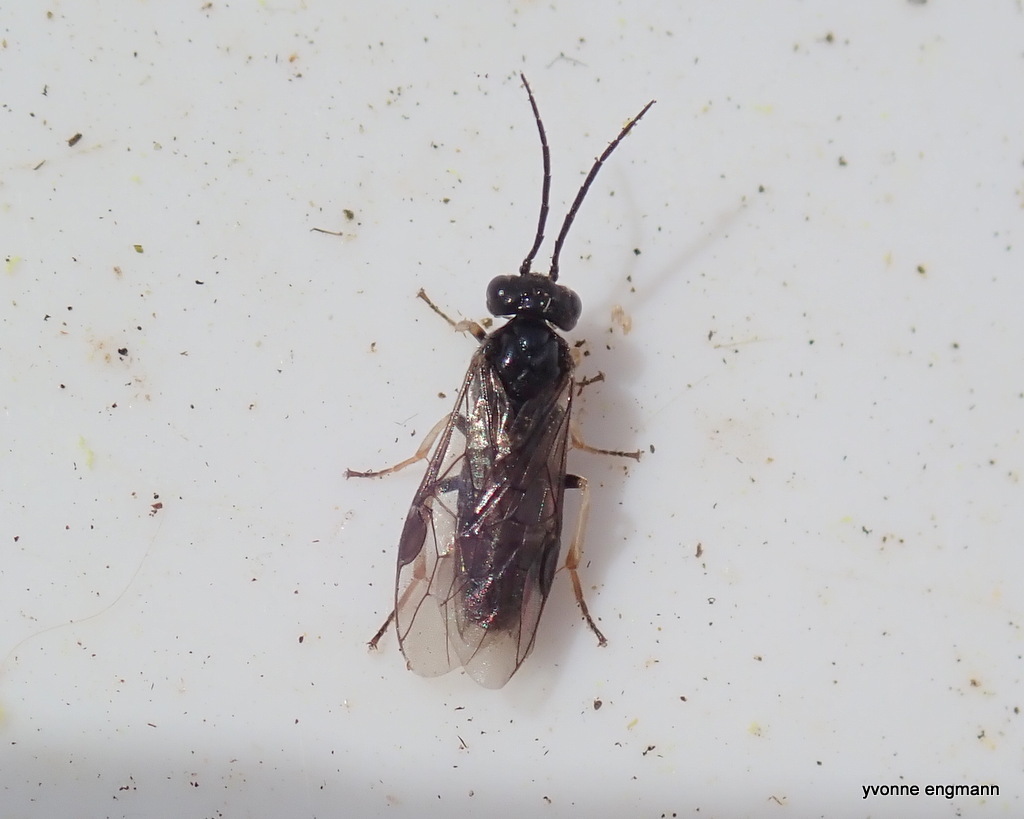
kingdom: Animalia
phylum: Arthropoda
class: Insecta
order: Hymenoptera
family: Tenthredinidae
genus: Cladius
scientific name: Cladius pectinicornis
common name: Sawfly
